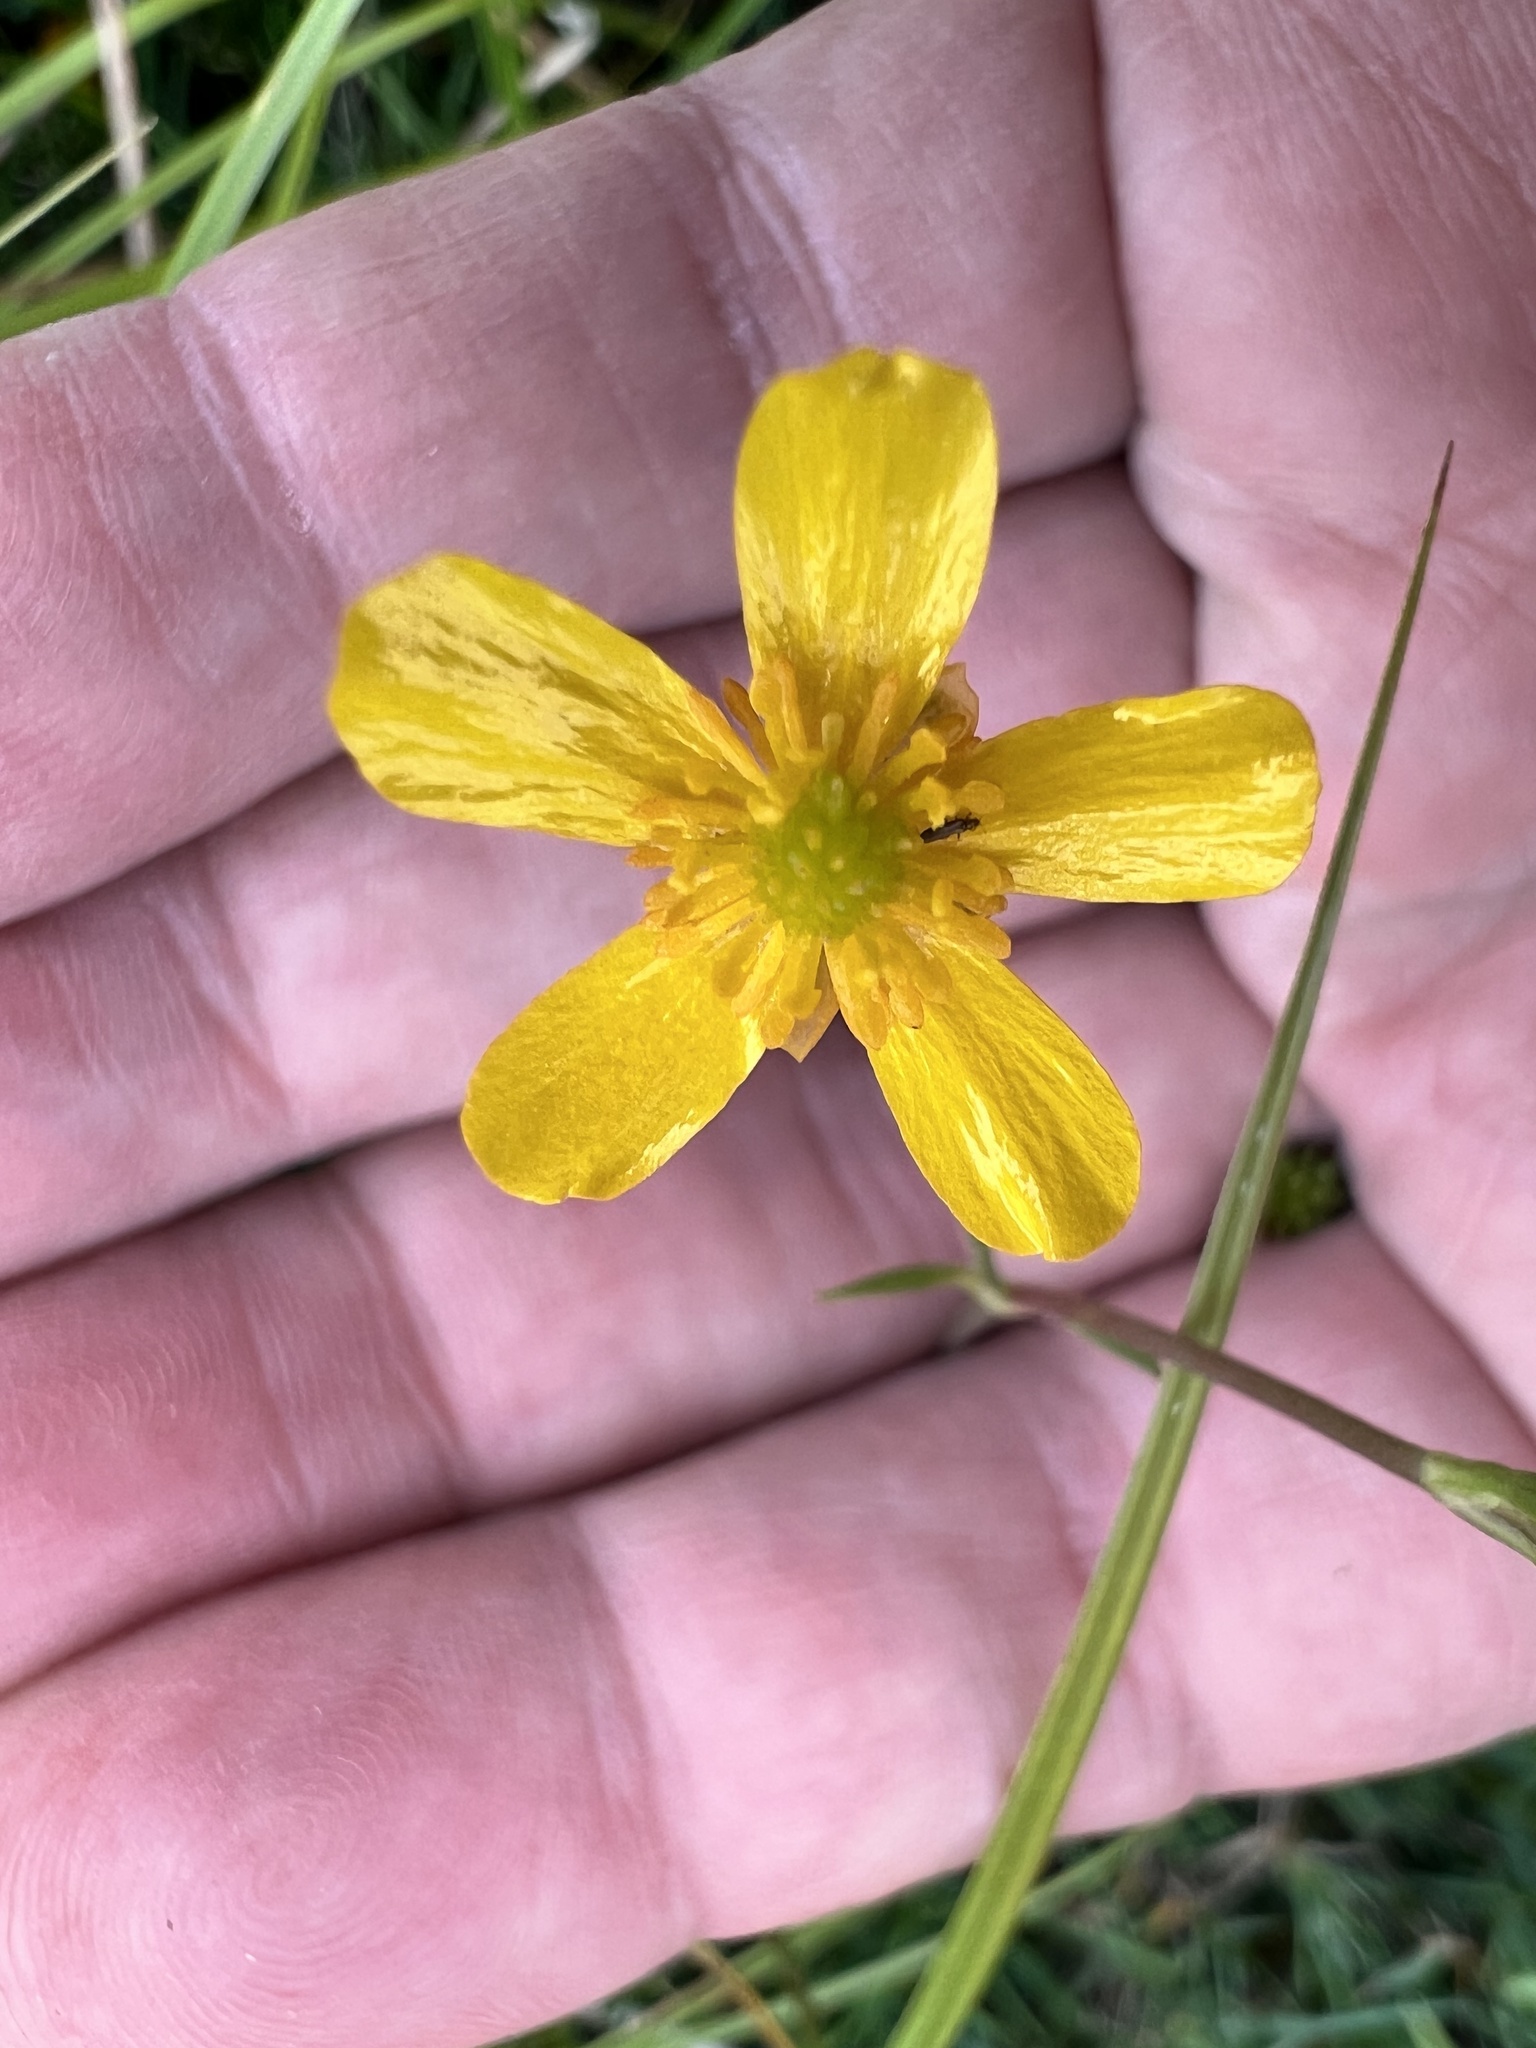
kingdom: Plantae
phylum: Tracheophyta
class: Magnoliopsida
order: Ranunculales
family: Ranunculaceae
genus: Ranunculus
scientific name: Ranunculus flammula
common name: Lesser spearwort
